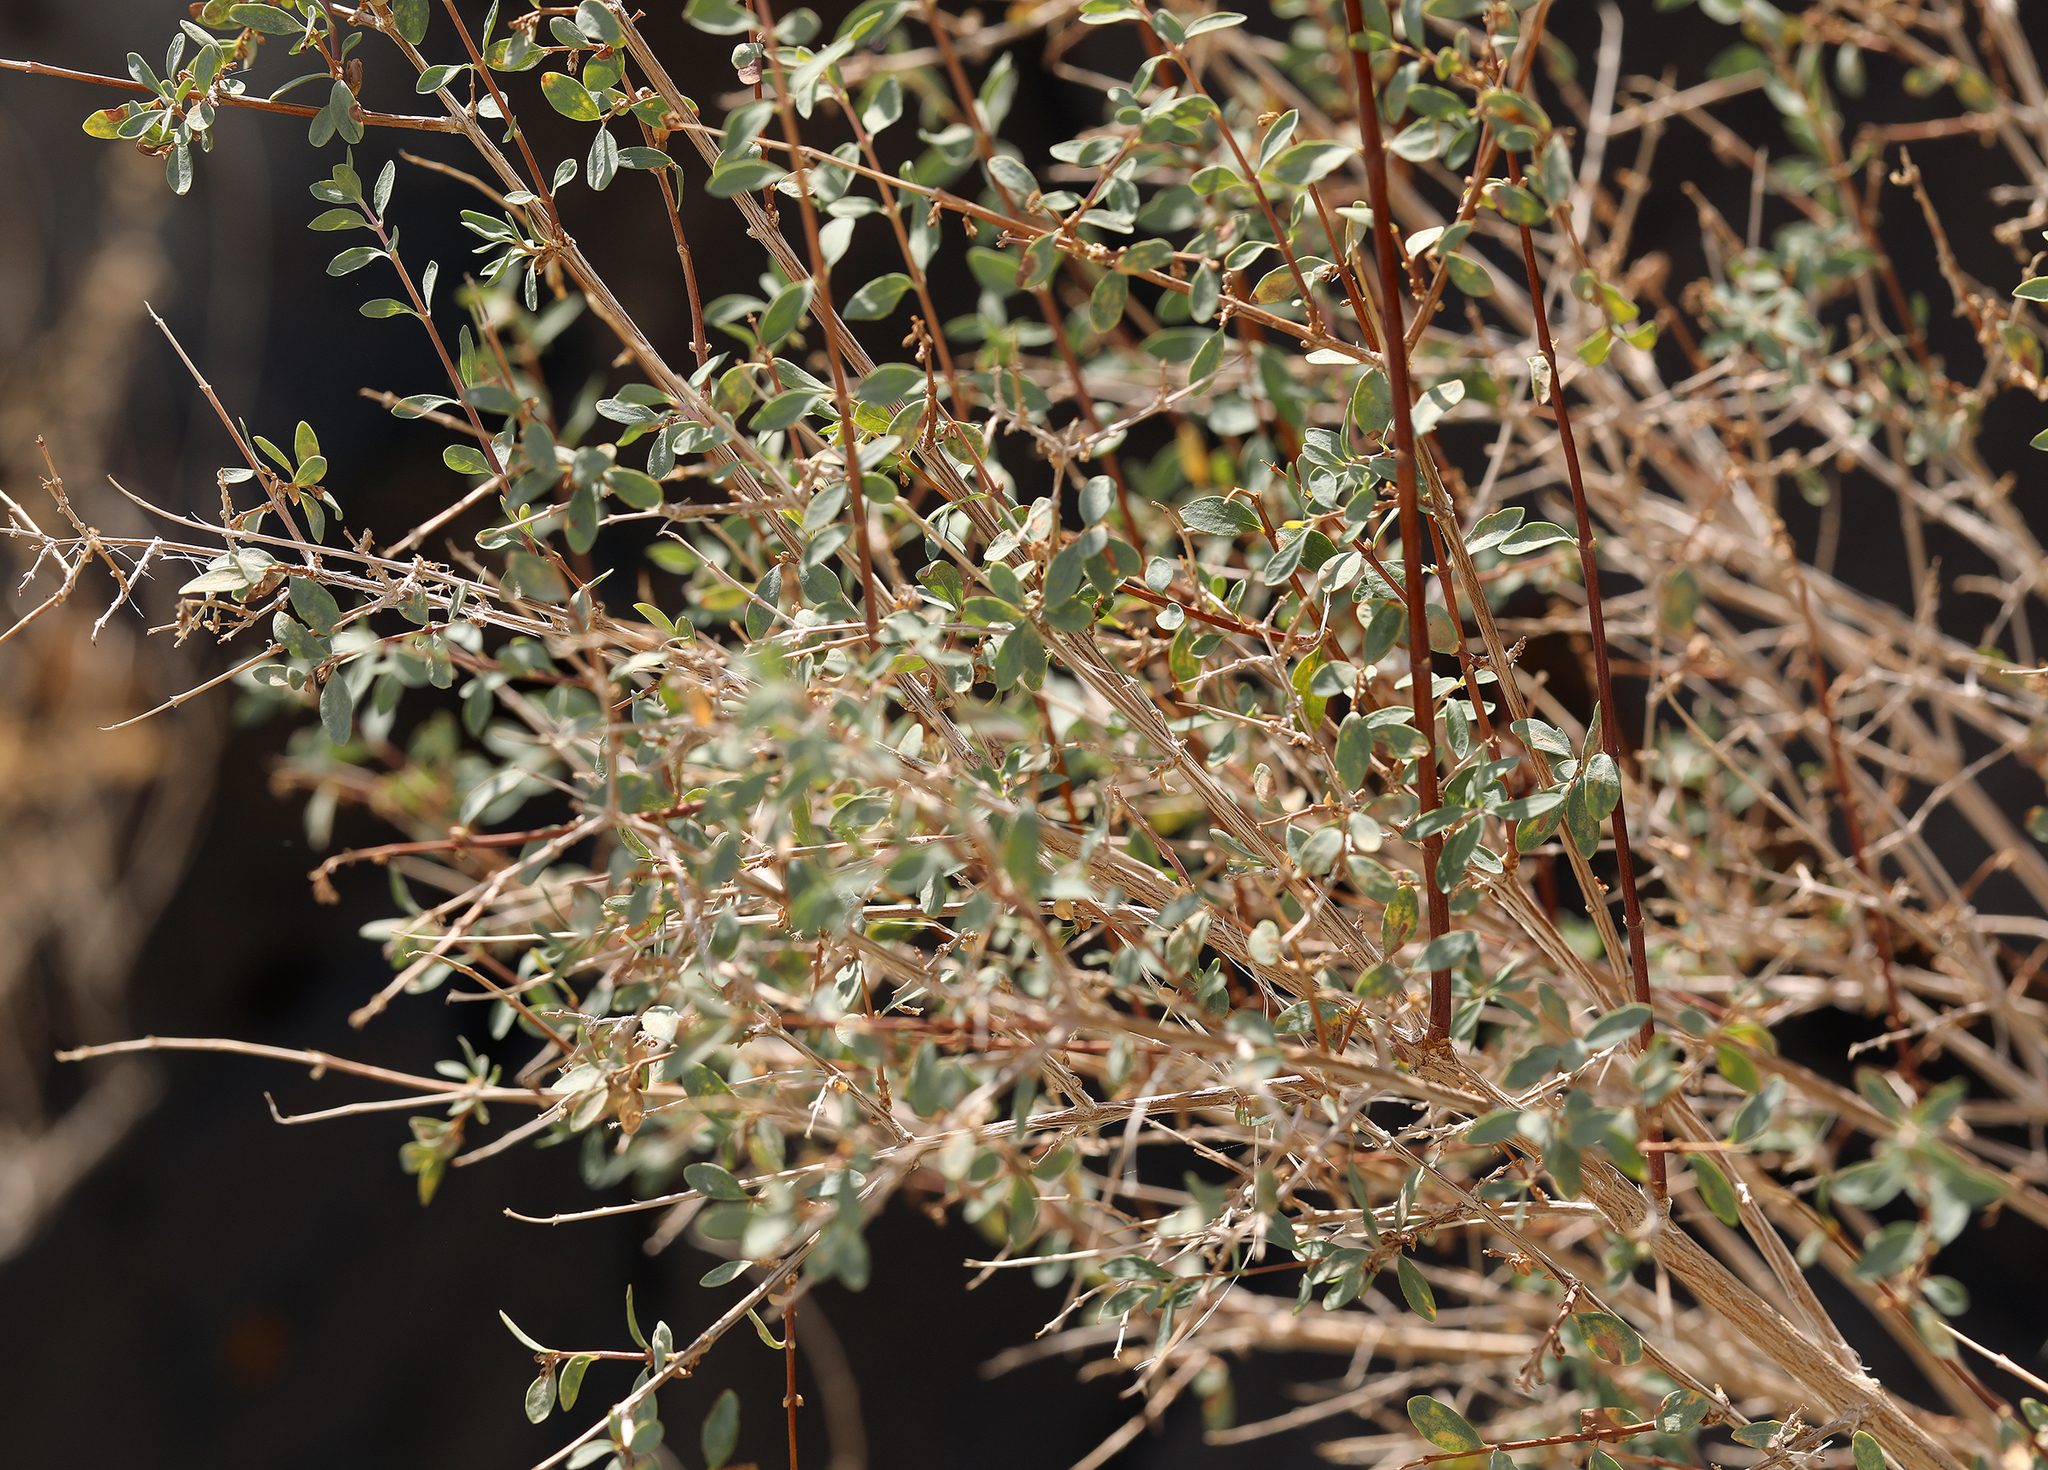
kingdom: Plantae
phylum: Tracheophyta
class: Magnoliopsida
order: Dipsacales
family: Caprifoliaceae
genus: Symphoricarpos
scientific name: Symphoricarpos longiflorus
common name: Fragrant snowberry
